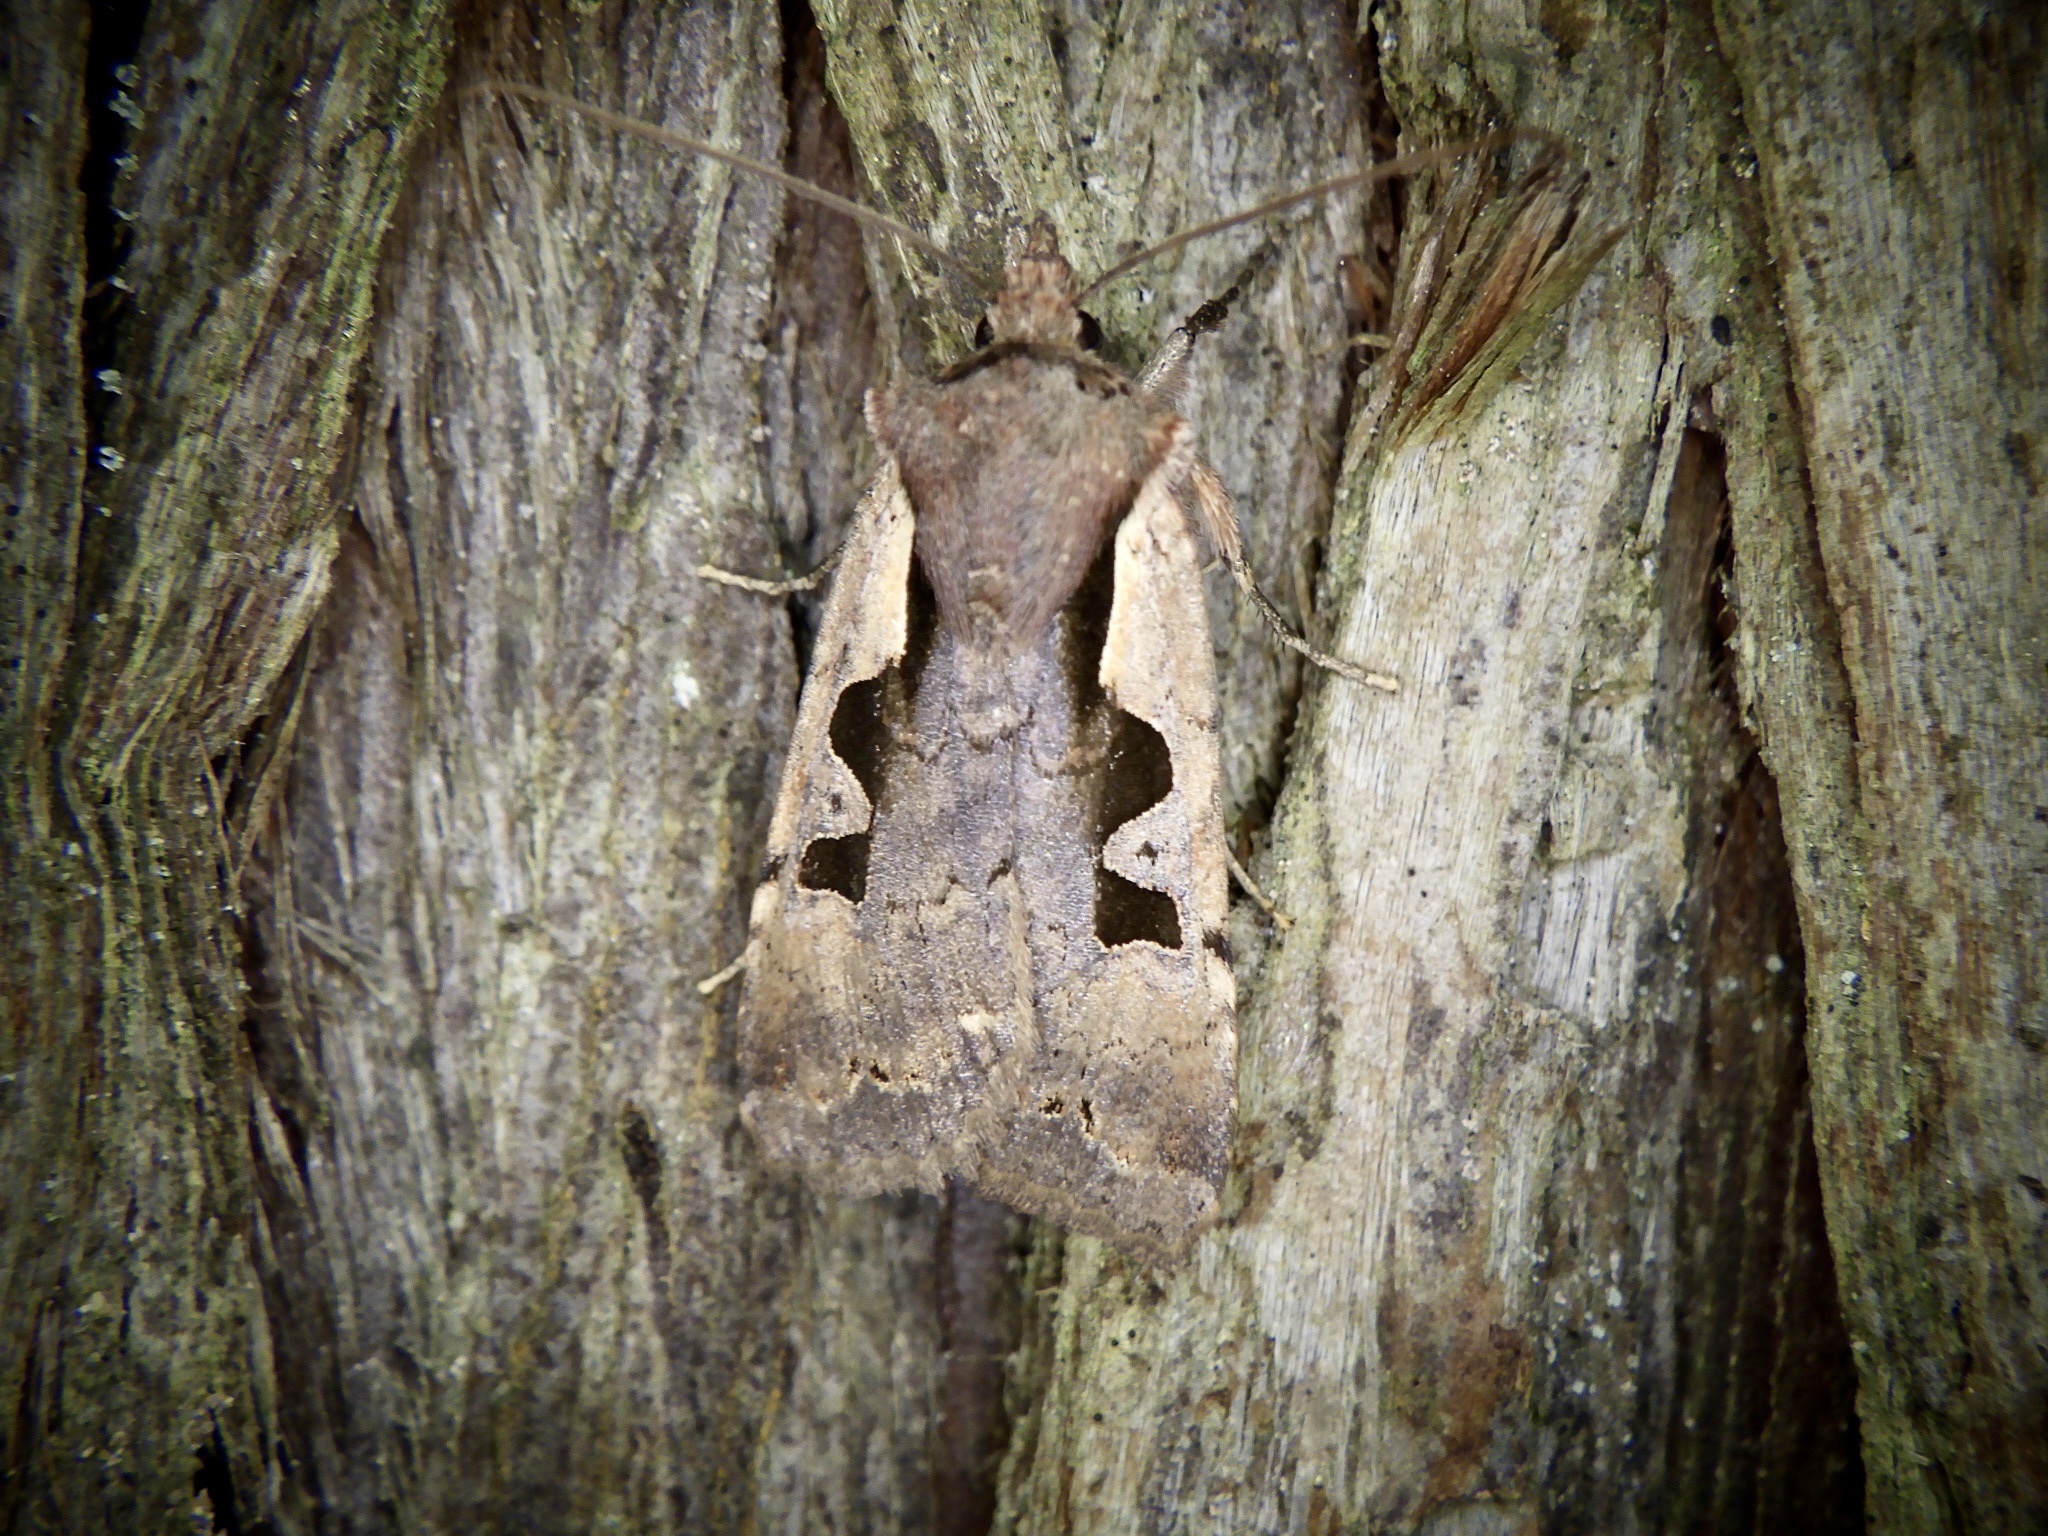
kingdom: Animalia
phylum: Arthropoda
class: Insecta
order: Lepidoptera
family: Noctuidae
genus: Sugitania
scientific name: Sugitania
